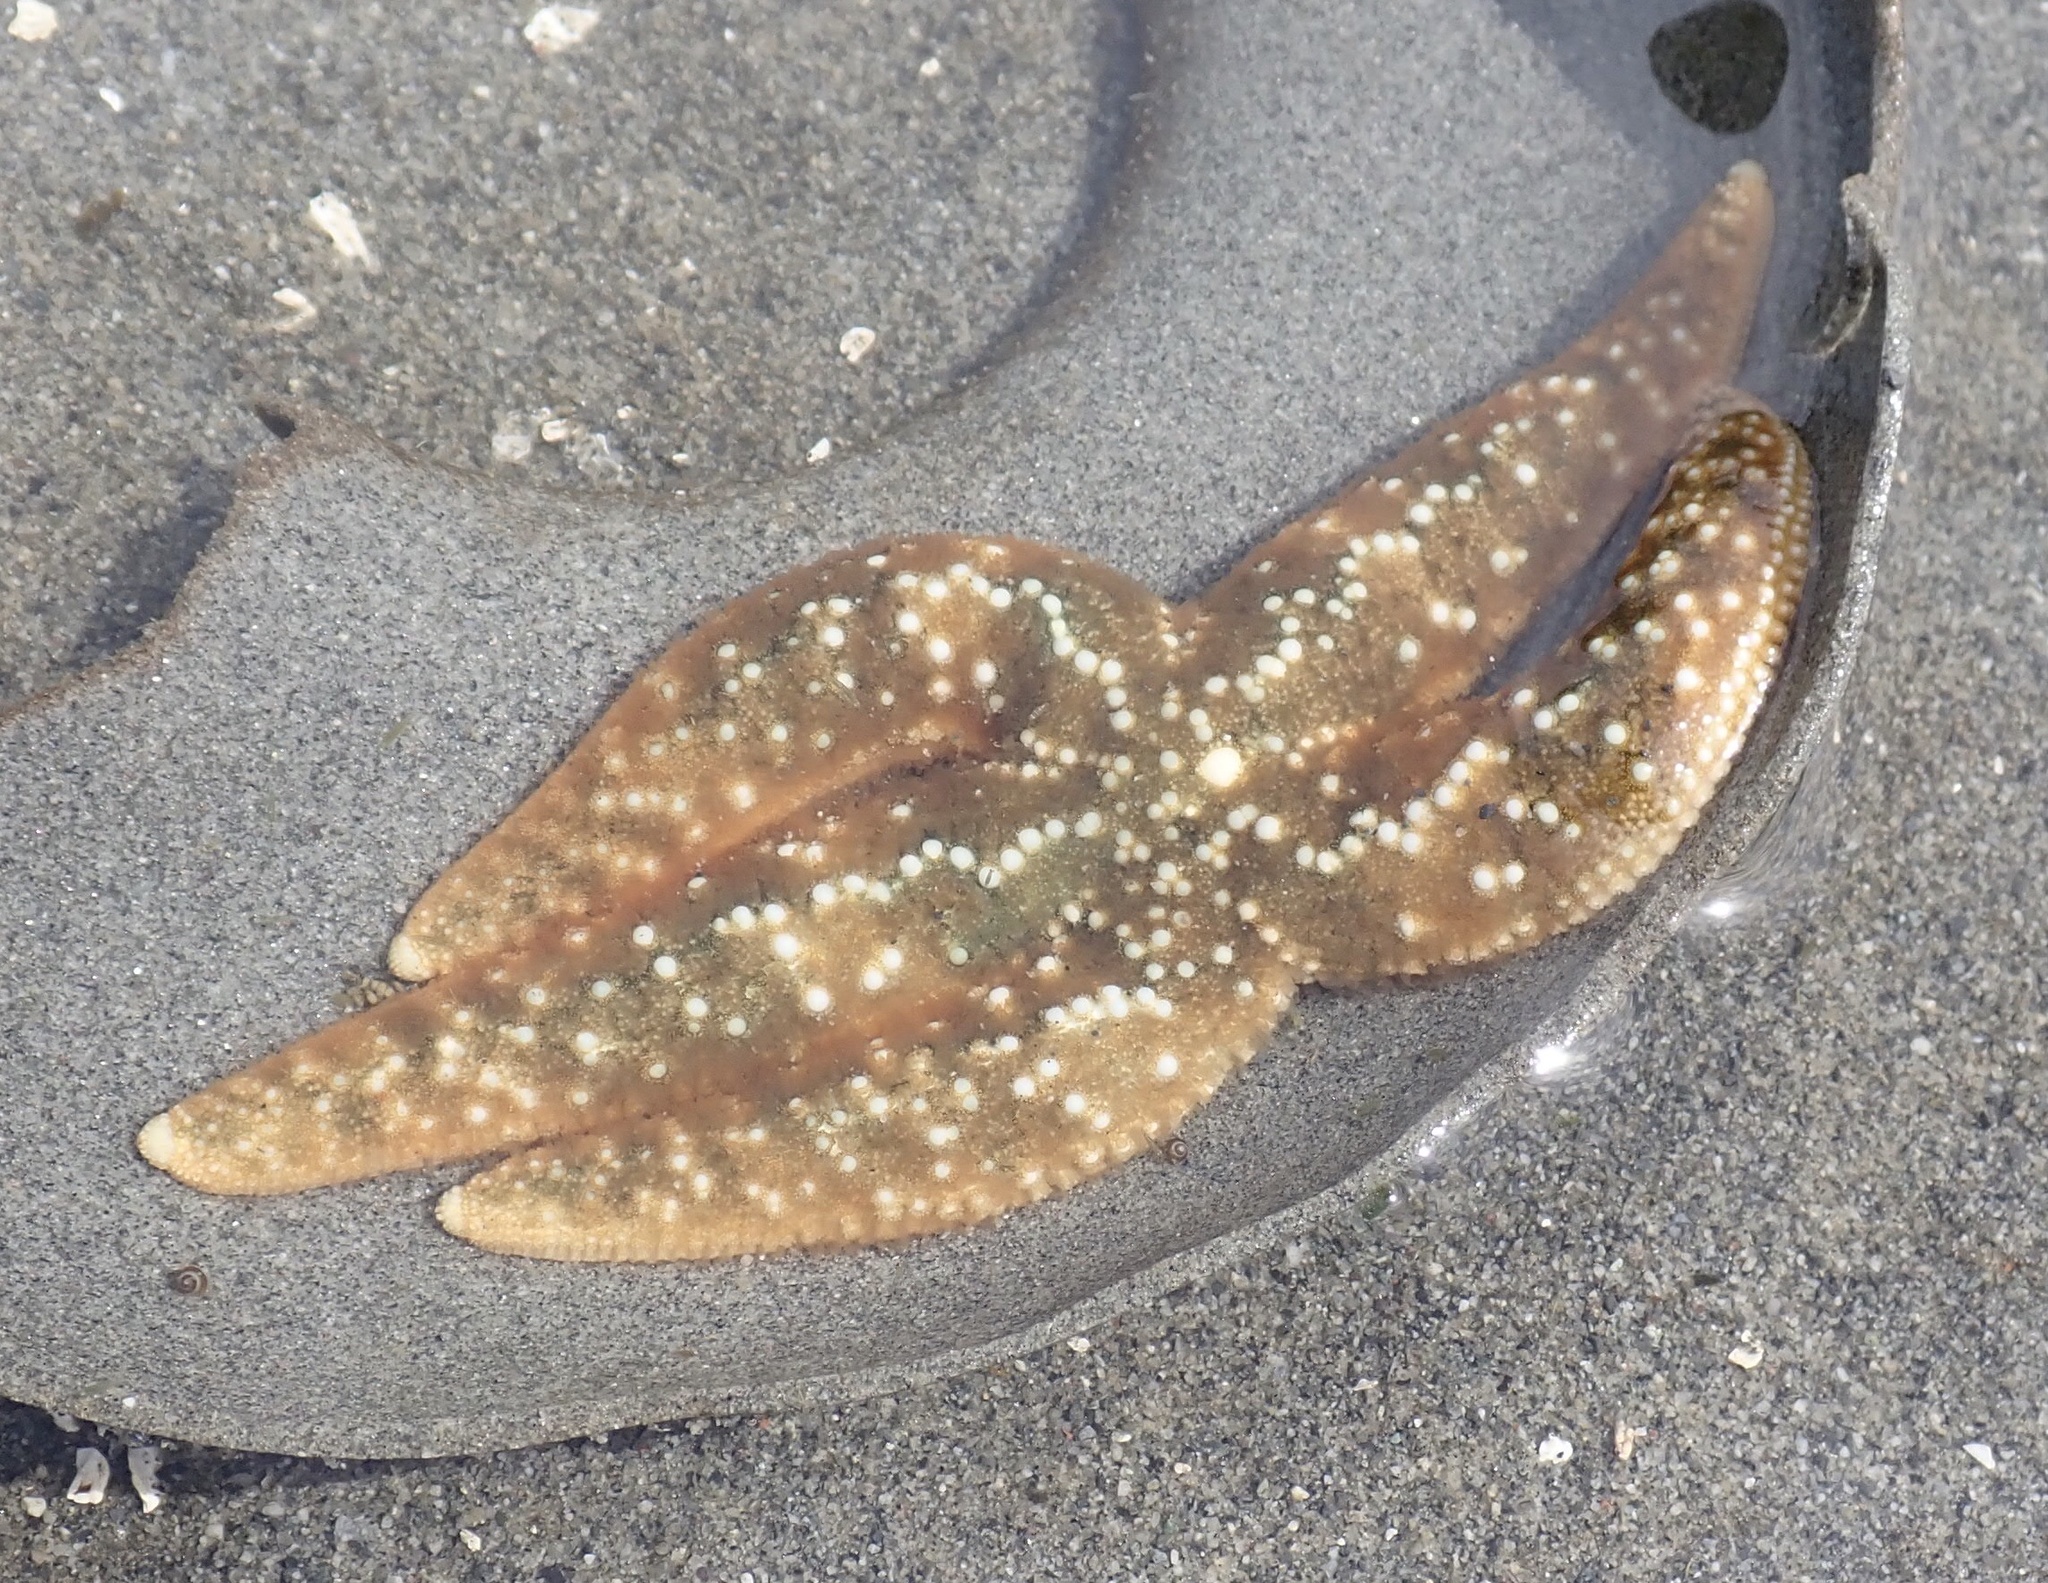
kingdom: Animalia
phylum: Echinodermata
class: Asteroidea
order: Forcipulatida
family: Asteriidae
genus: Evasterias
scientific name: Evasterias troschelii
